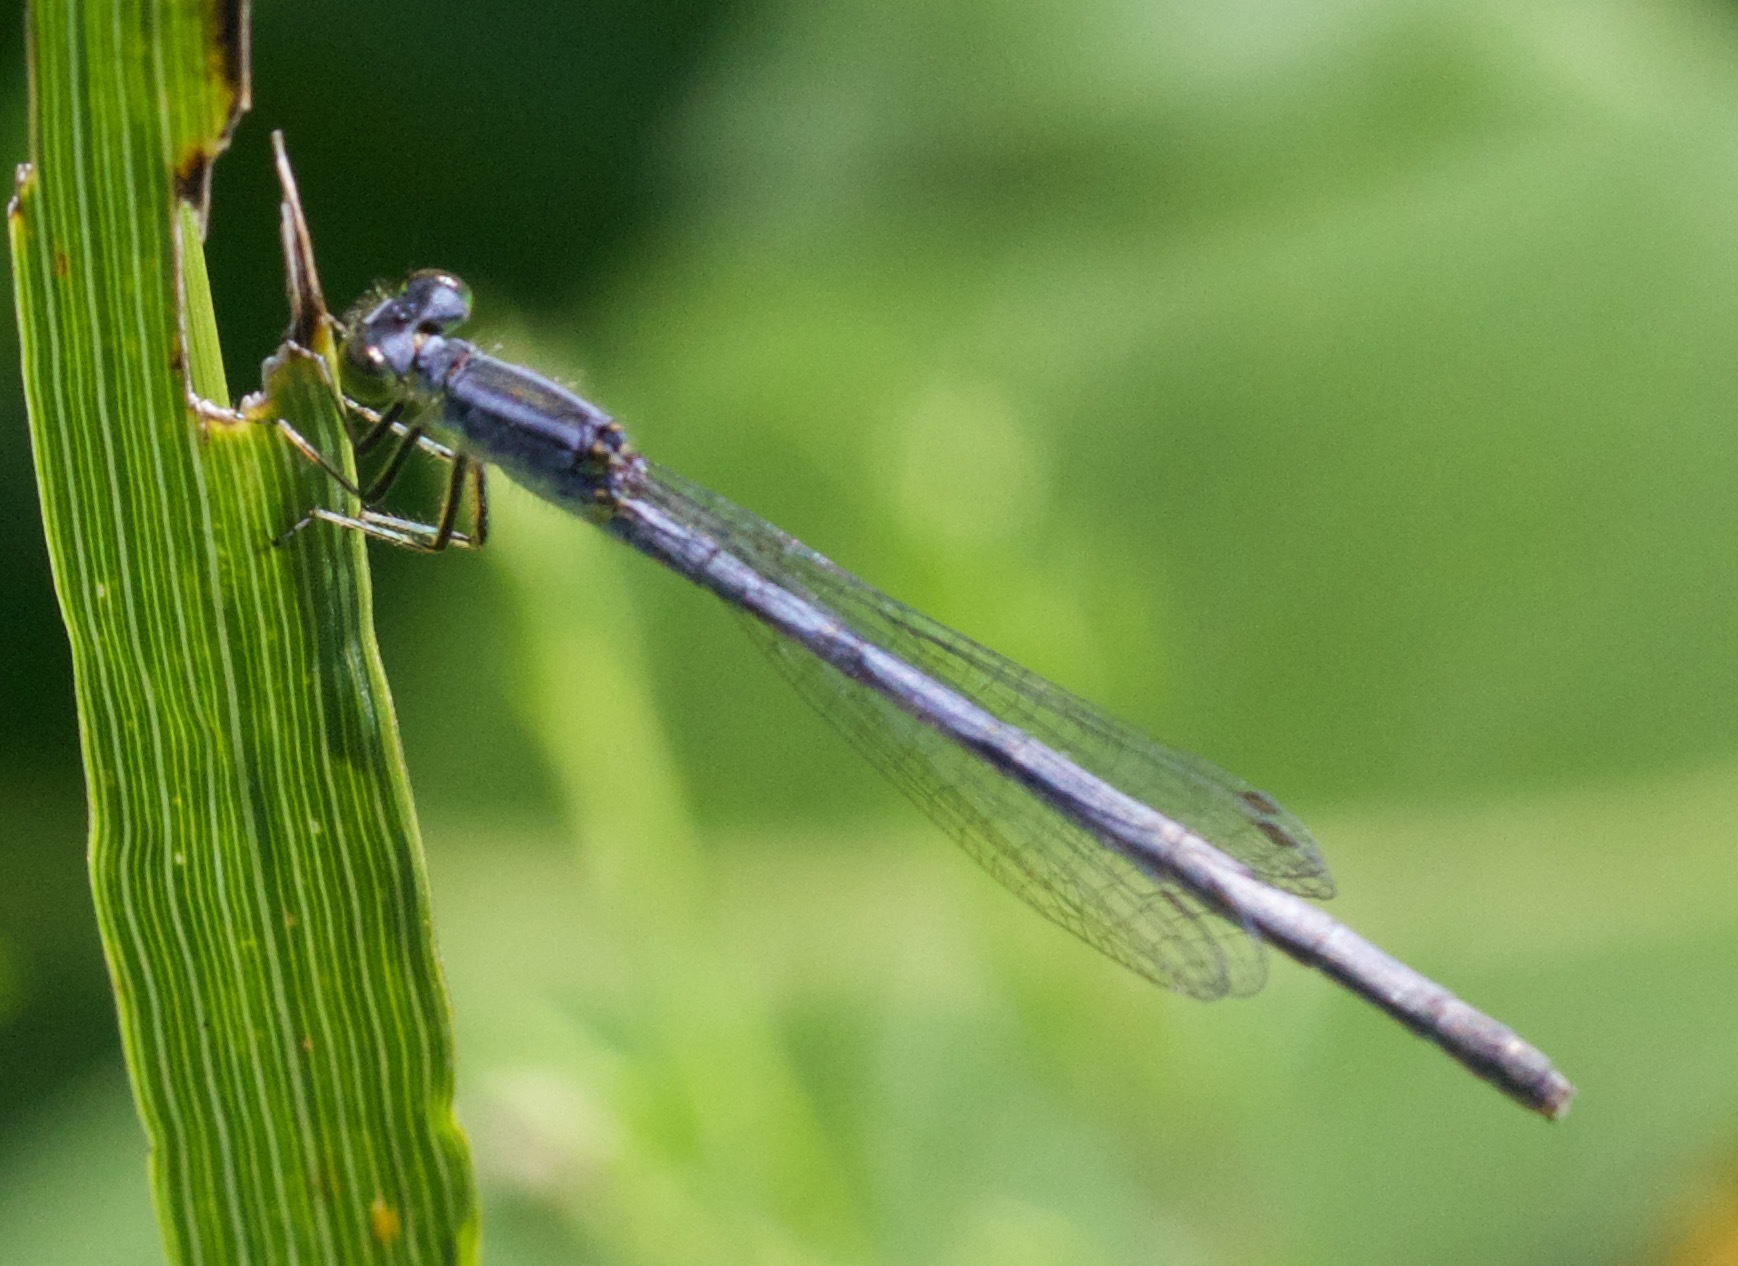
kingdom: Animalia
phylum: Arthropoda
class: Insecta
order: Odonata
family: Coenagrionidae
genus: Ischnura
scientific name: Ischnura verticalis
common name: Eastern forktail
